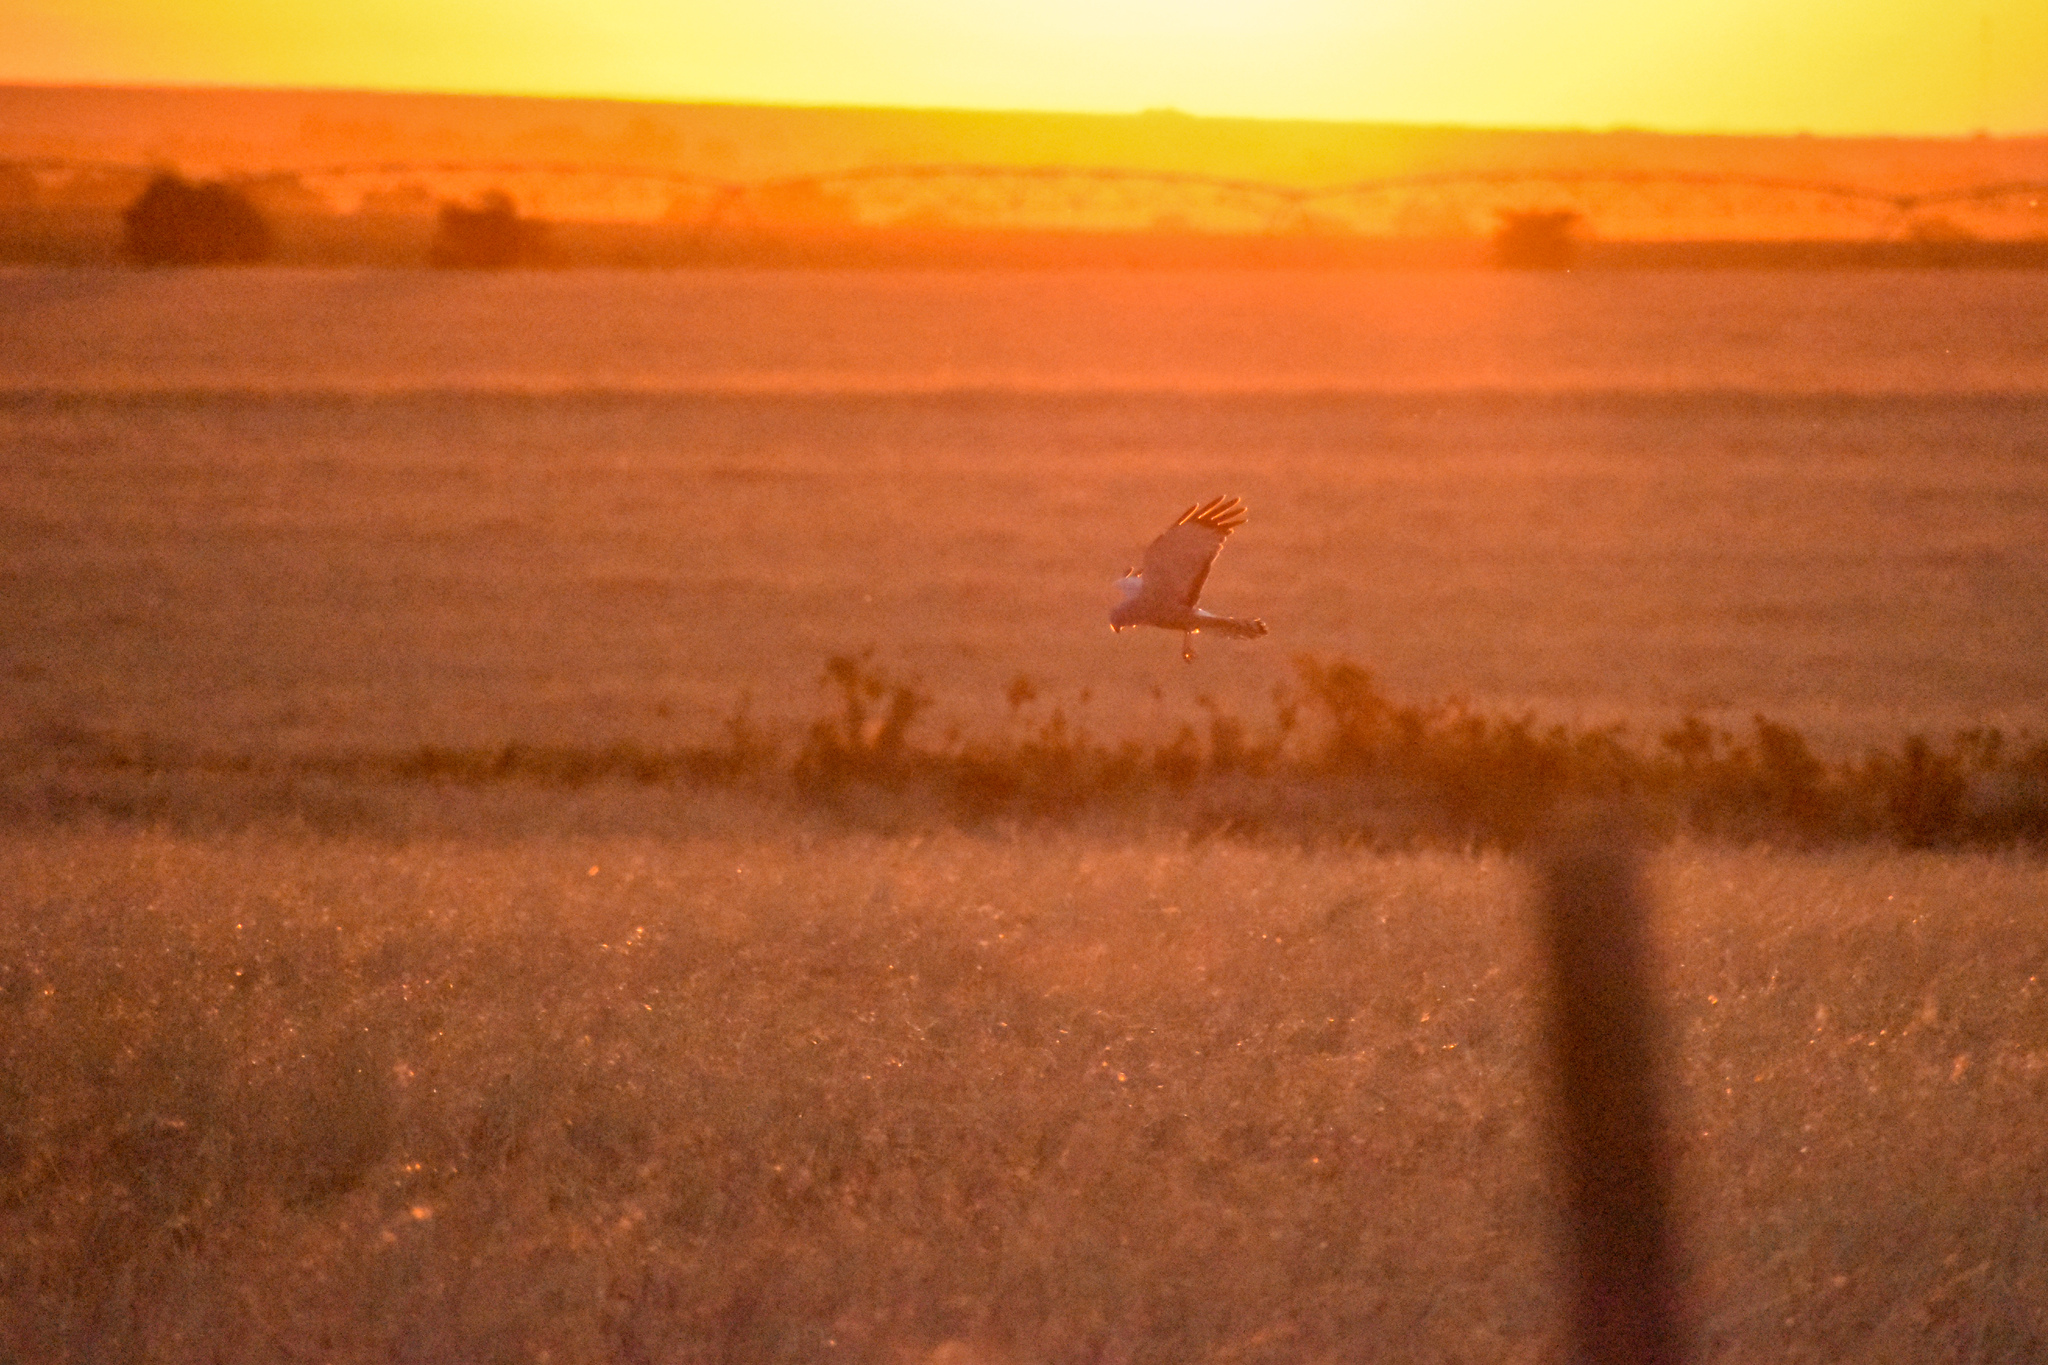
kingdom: Animalia
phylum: Chordata
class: Aves
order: Accipitriformes
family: Accipitridae
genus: Circus
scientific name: Circus cinereus
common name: Cinereous harrier
